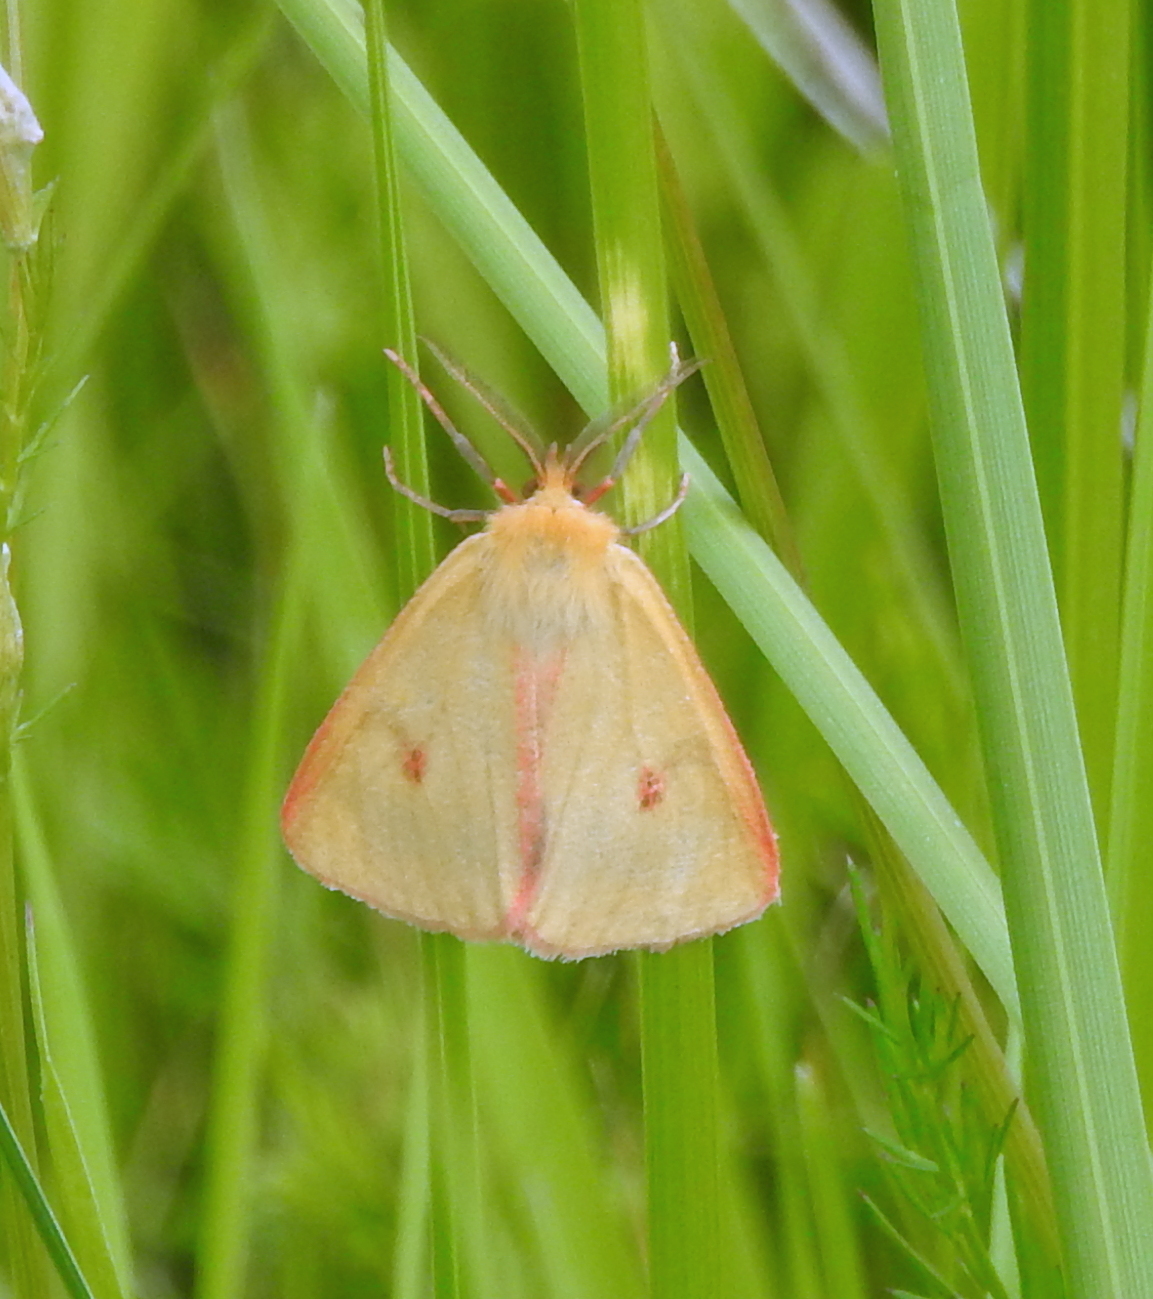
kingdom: Animalia
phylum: Arthropoda
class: Insecta
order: Lepidoptera
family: Erebidae
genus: Diacrisia
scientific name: Diacrisia sannio
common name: Clouded buff
